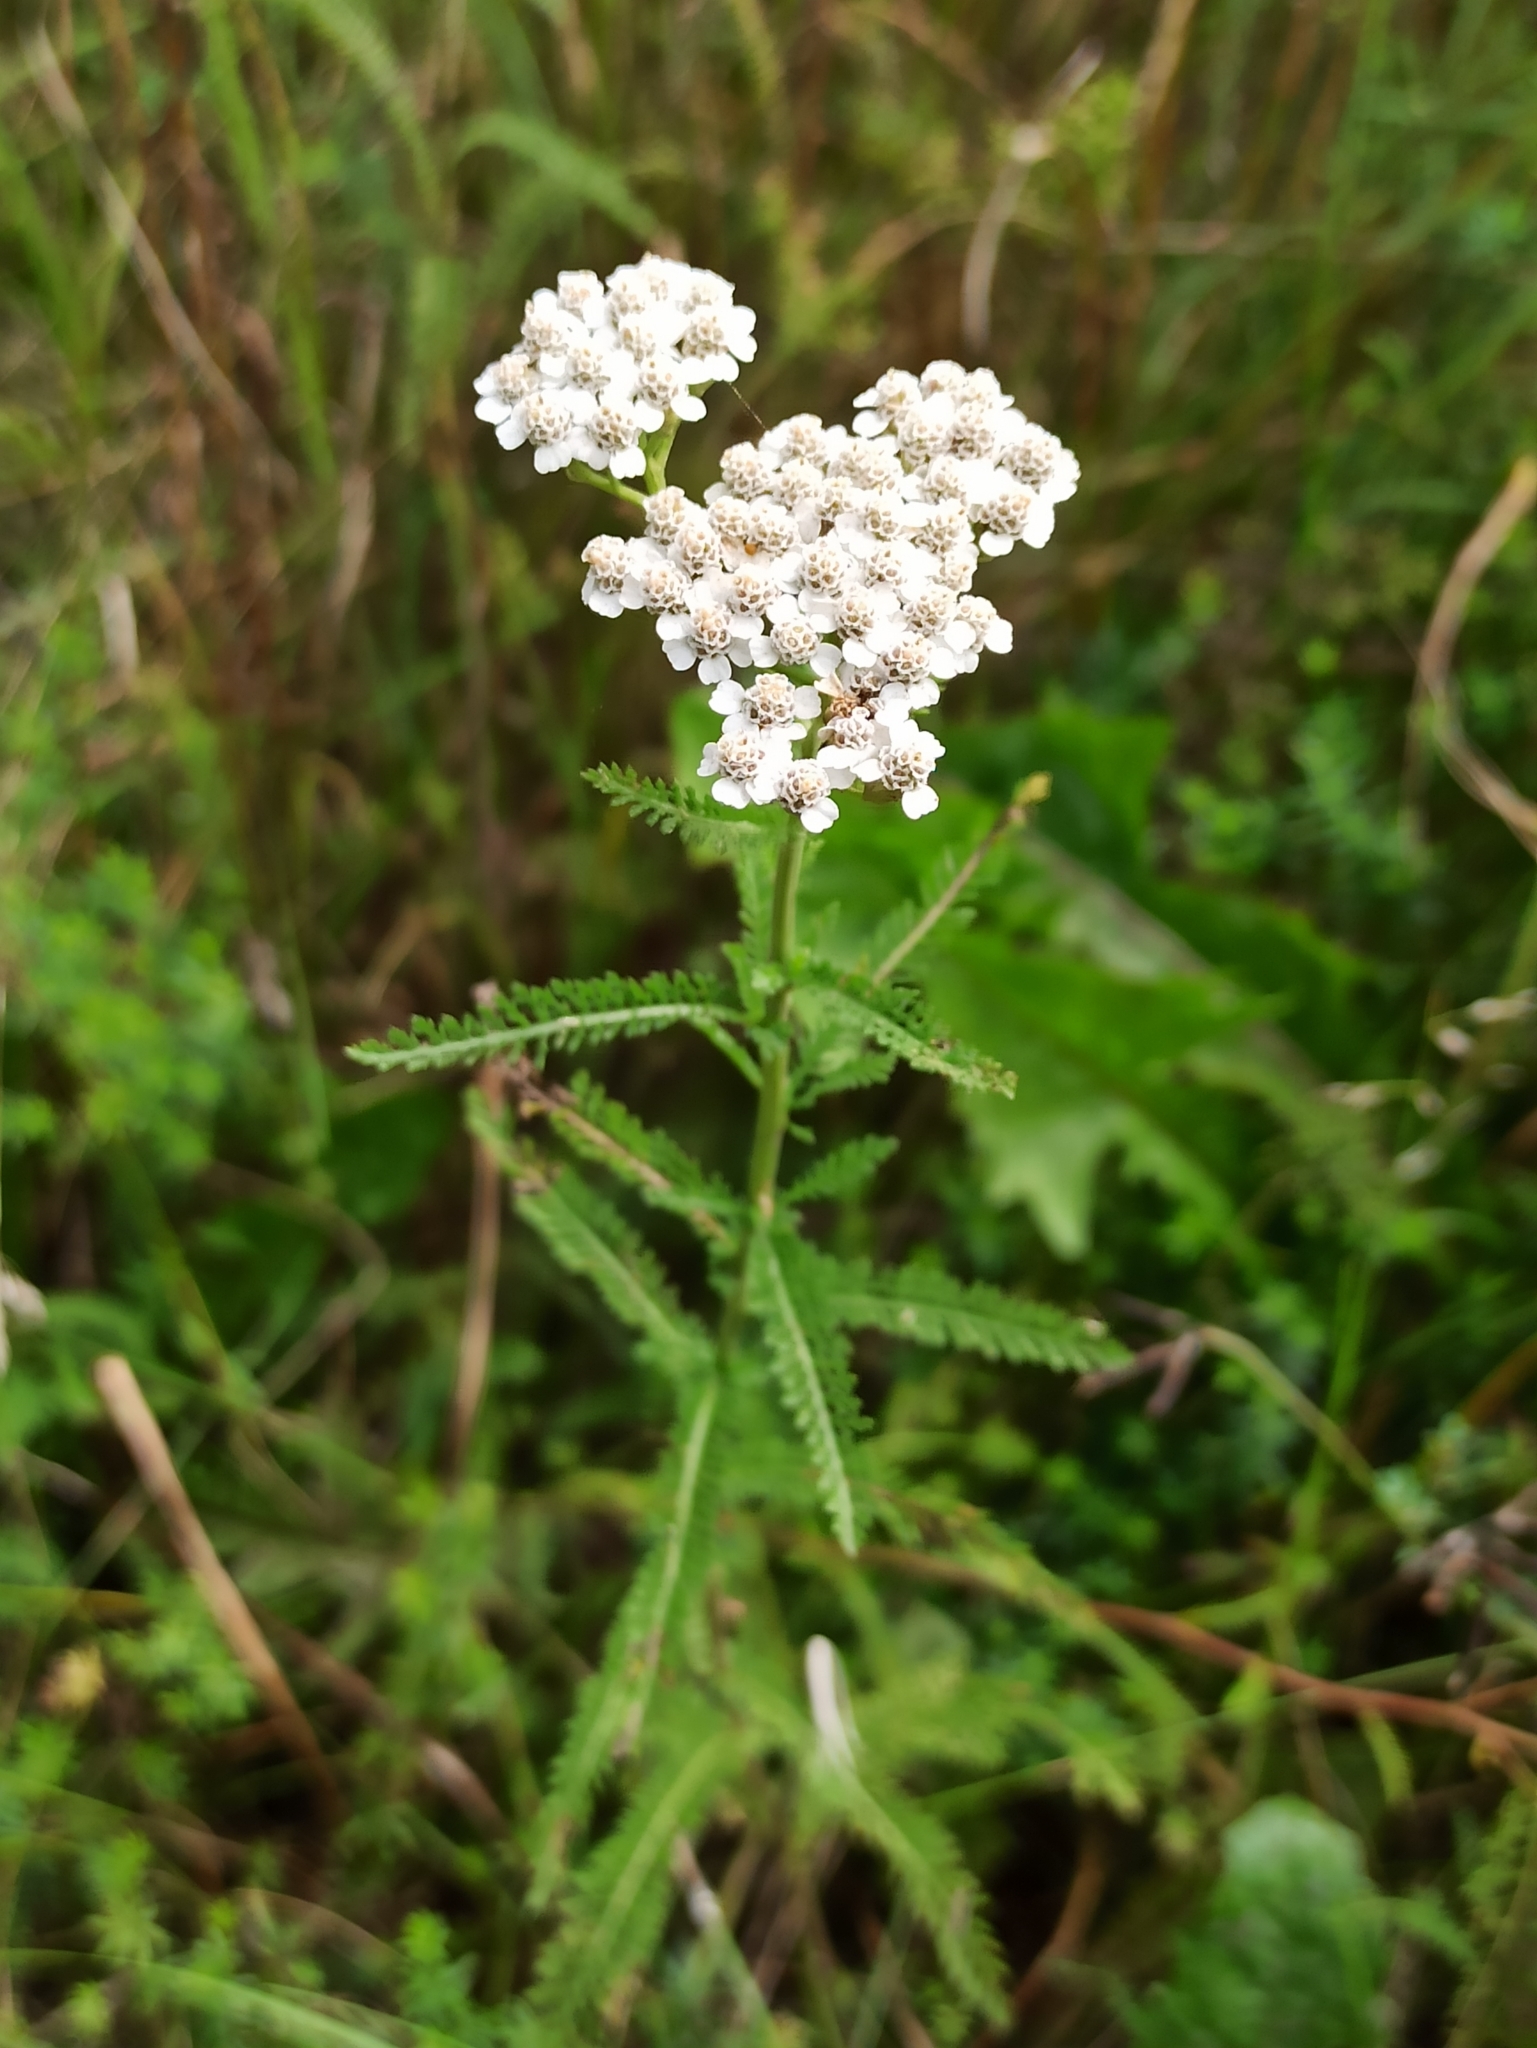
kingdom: Plantae
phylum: Tracheophyta
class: Magnoliopsida
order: Asterales
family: Asteraceae
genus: Achillea
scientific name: Achillea millefolium
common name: Yarrow
